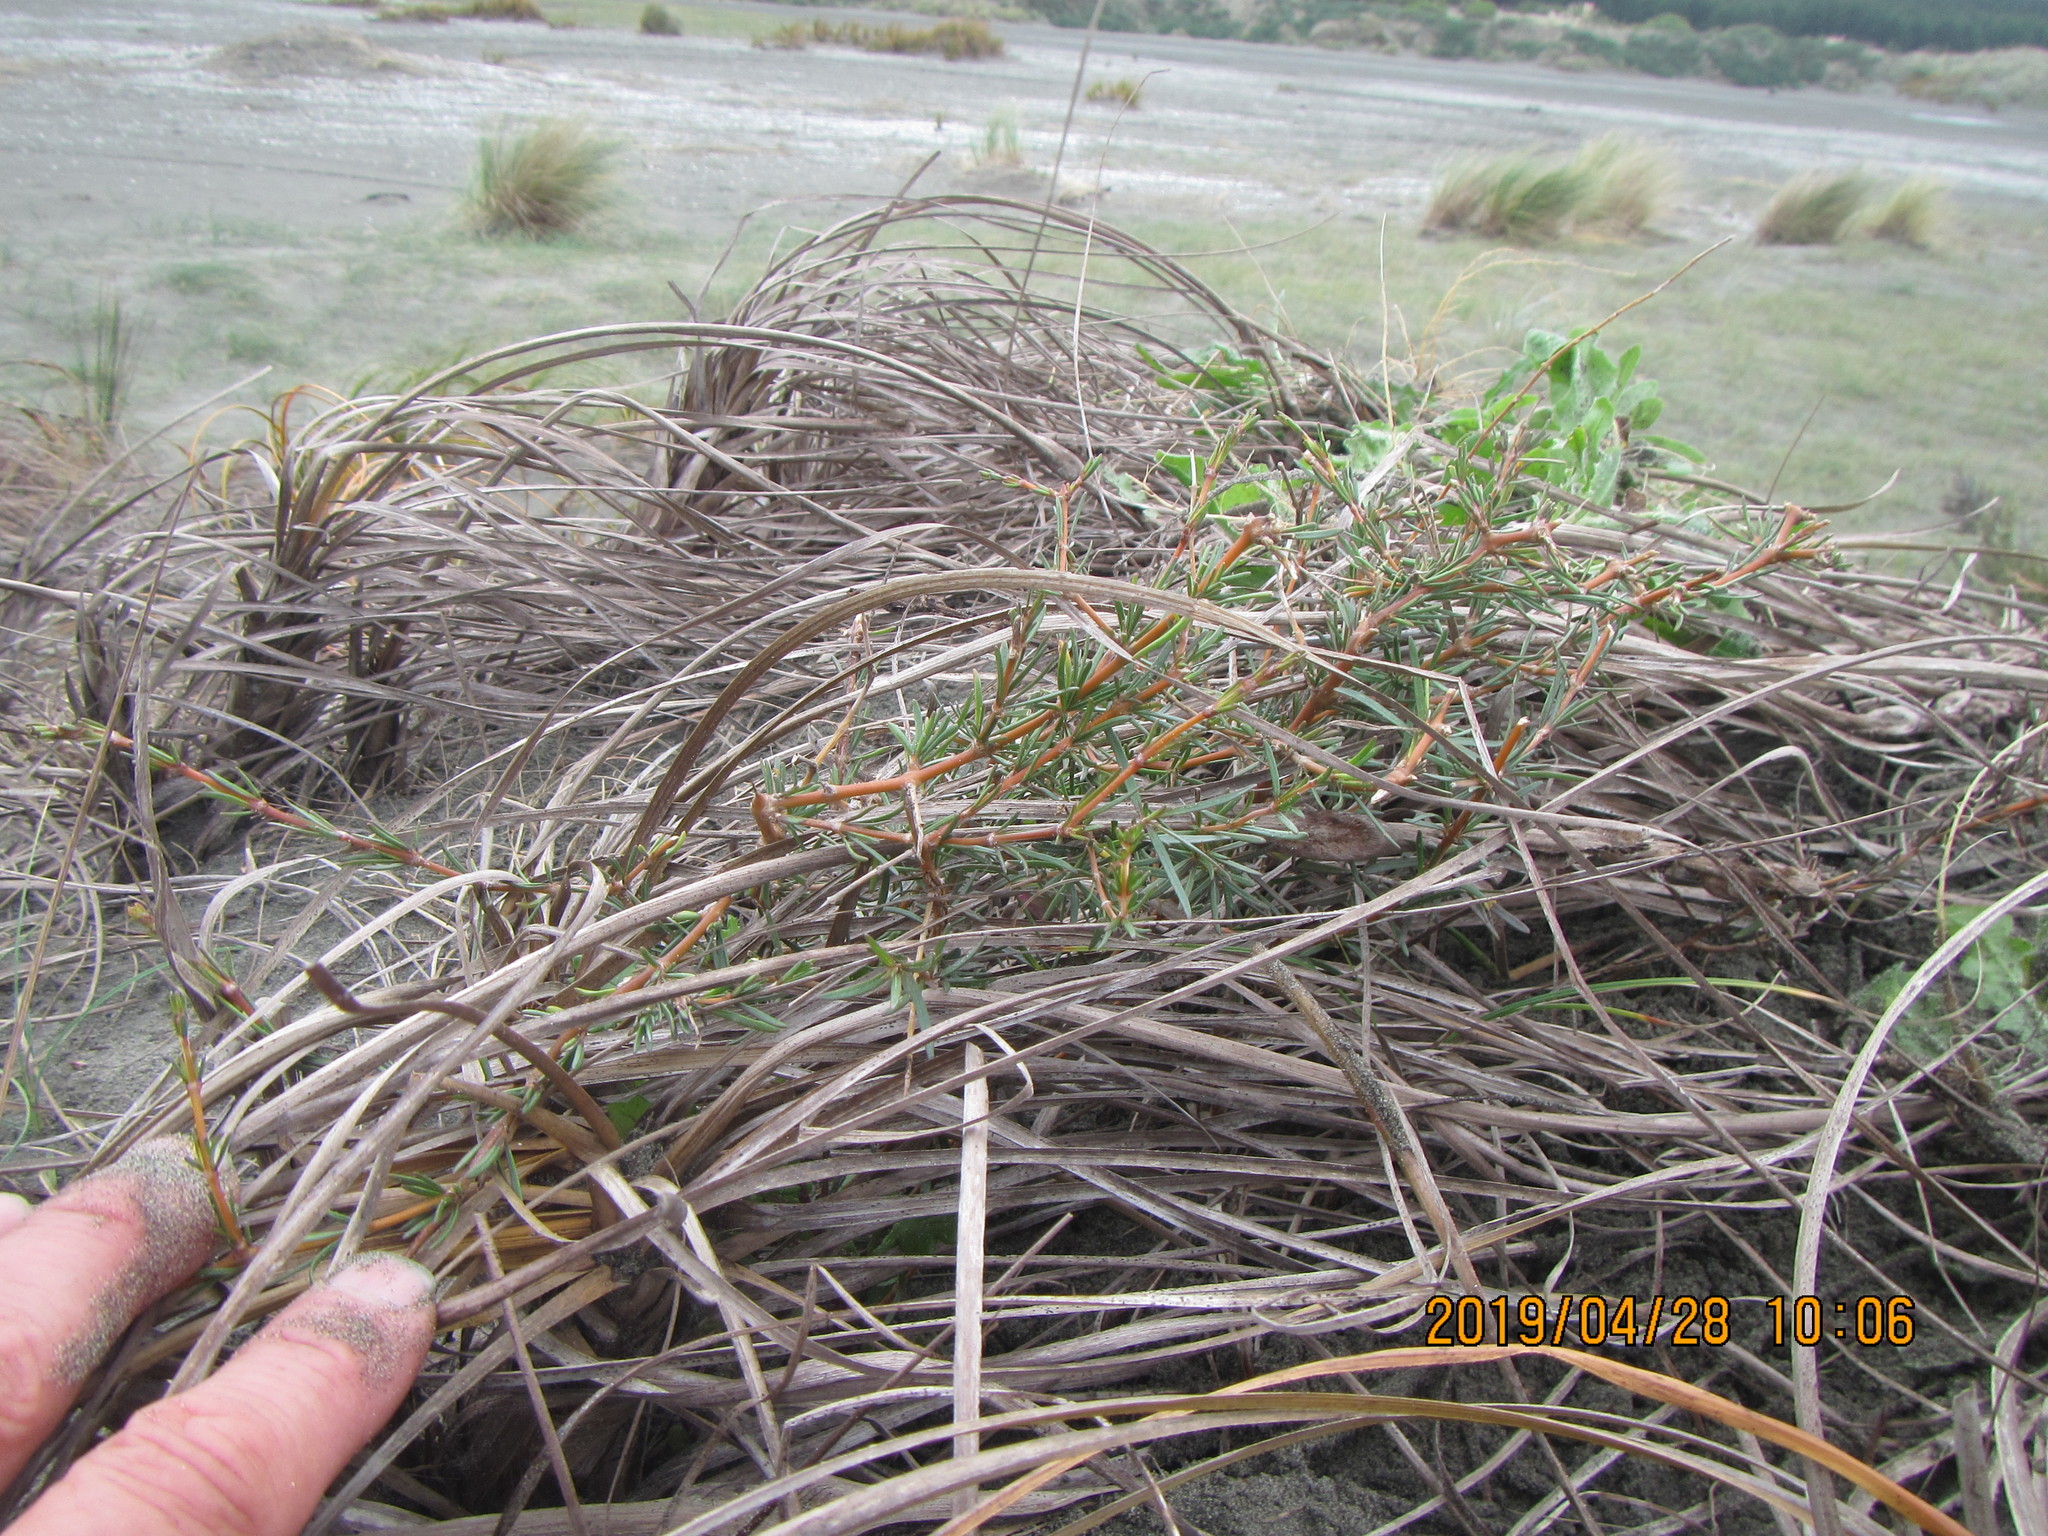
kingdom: Plantae
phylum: Tracheophyta
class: Magnoliopsida
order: Gentianales
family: Rubiaceae
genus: Coprosma
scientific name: Coprosma acerosa
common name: Sand coprosma
